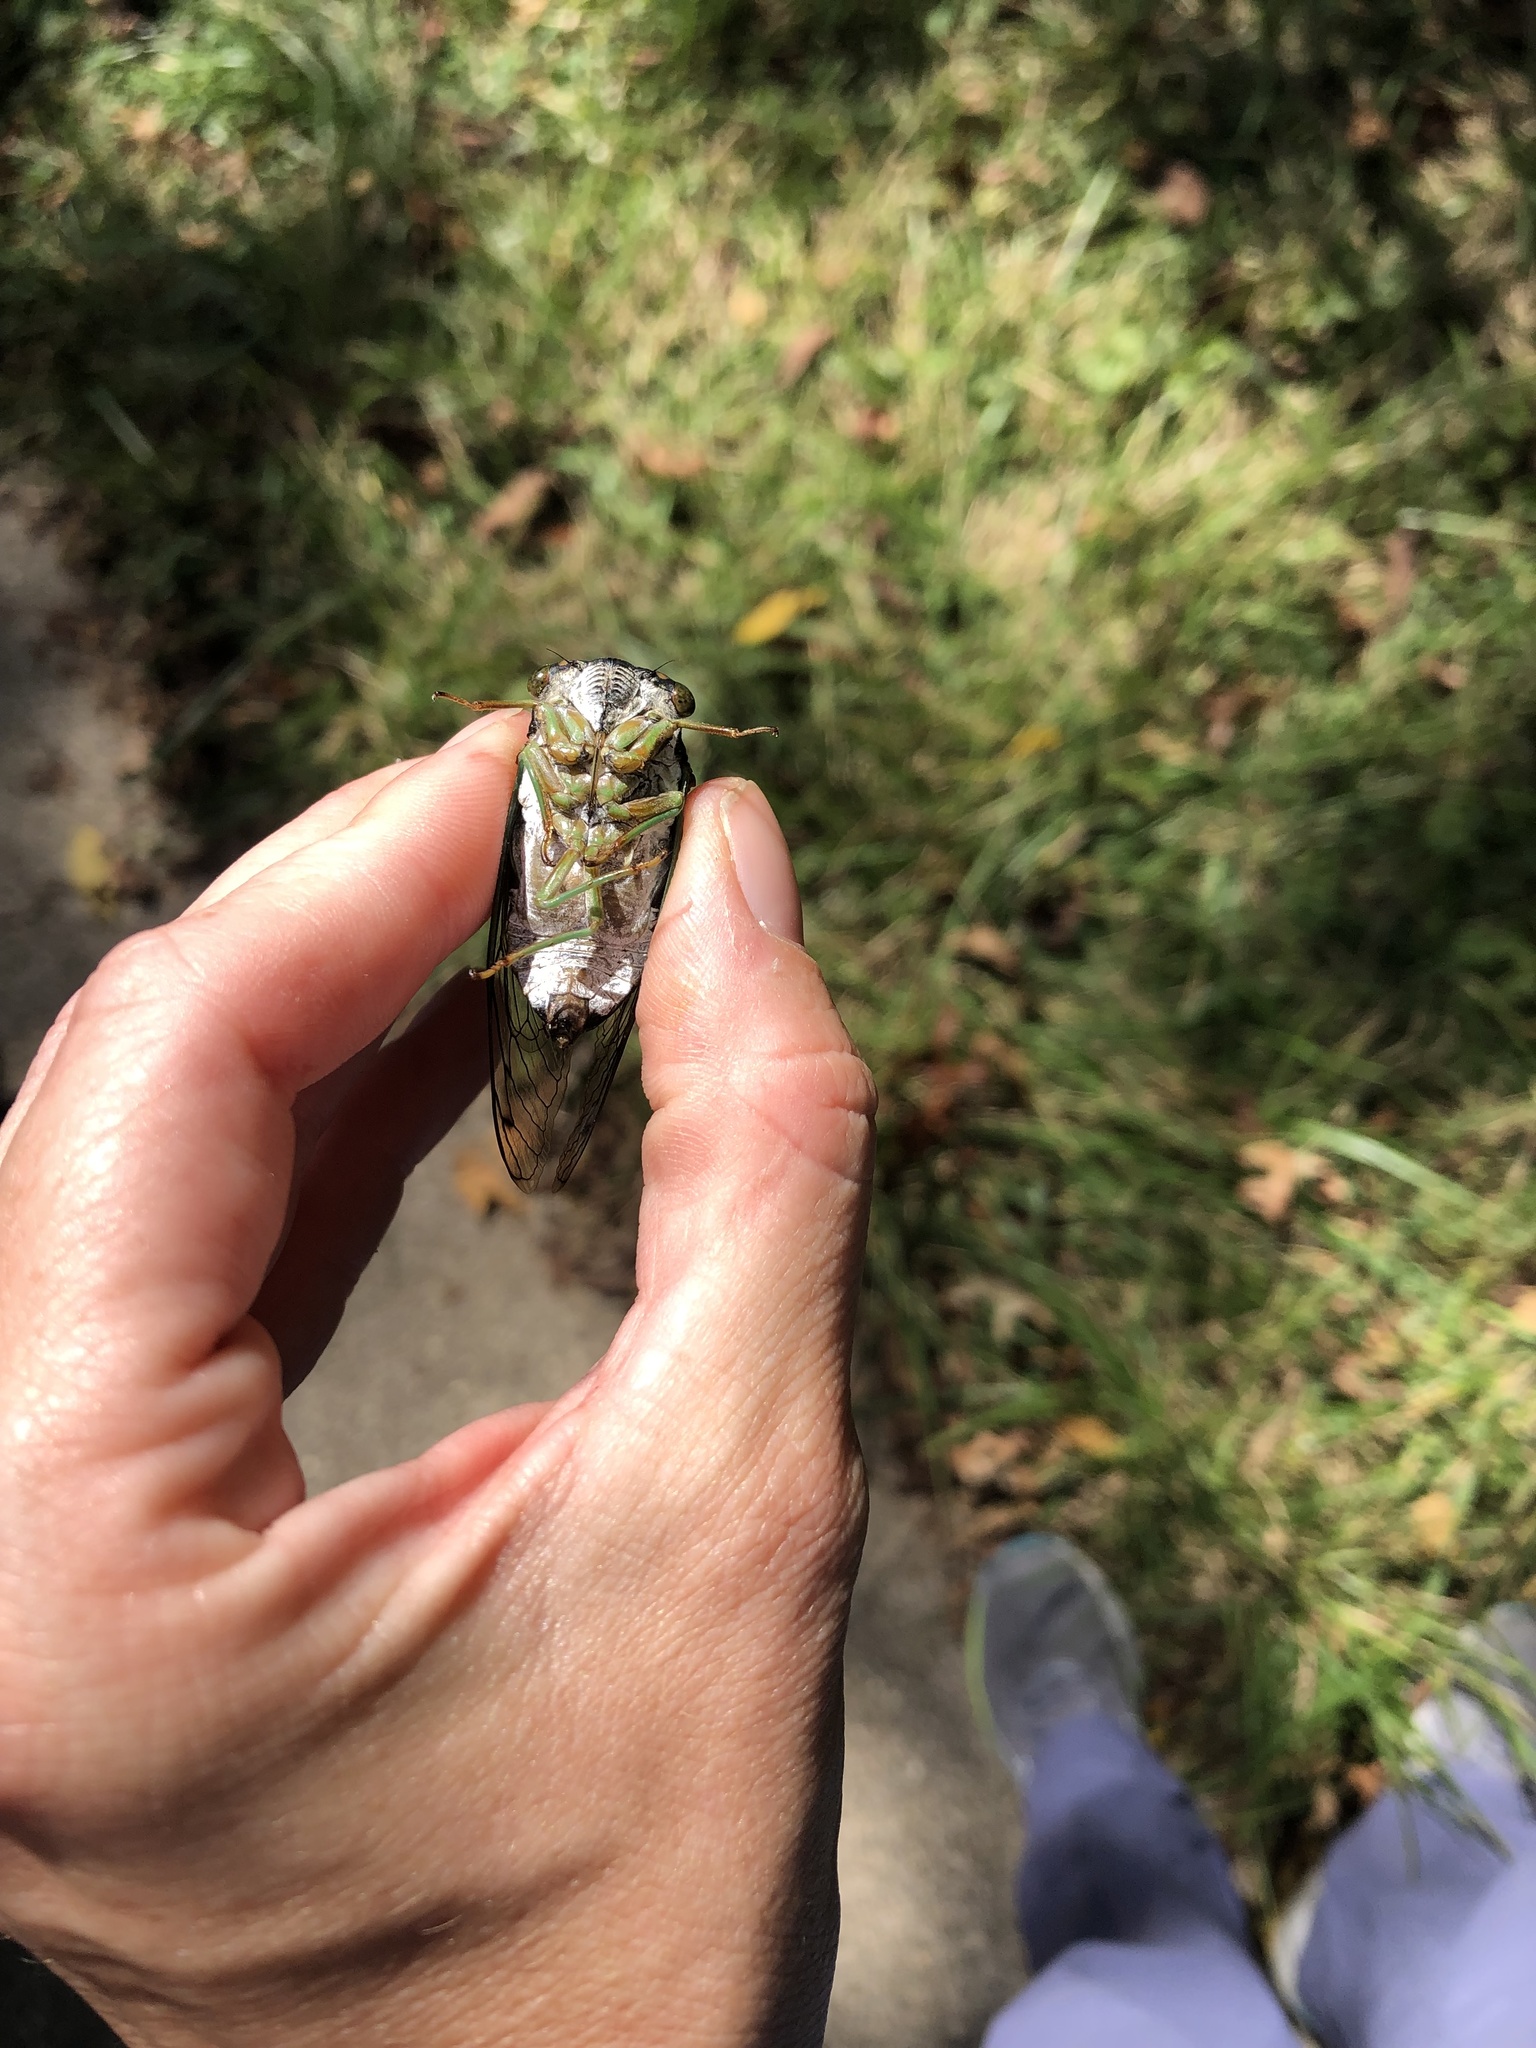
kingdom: Animalia
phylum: Arthropoda
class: Insecta
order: Hemiptera
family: Cicadidae
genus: Neotibicen
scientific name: Neotibicen tibicen
